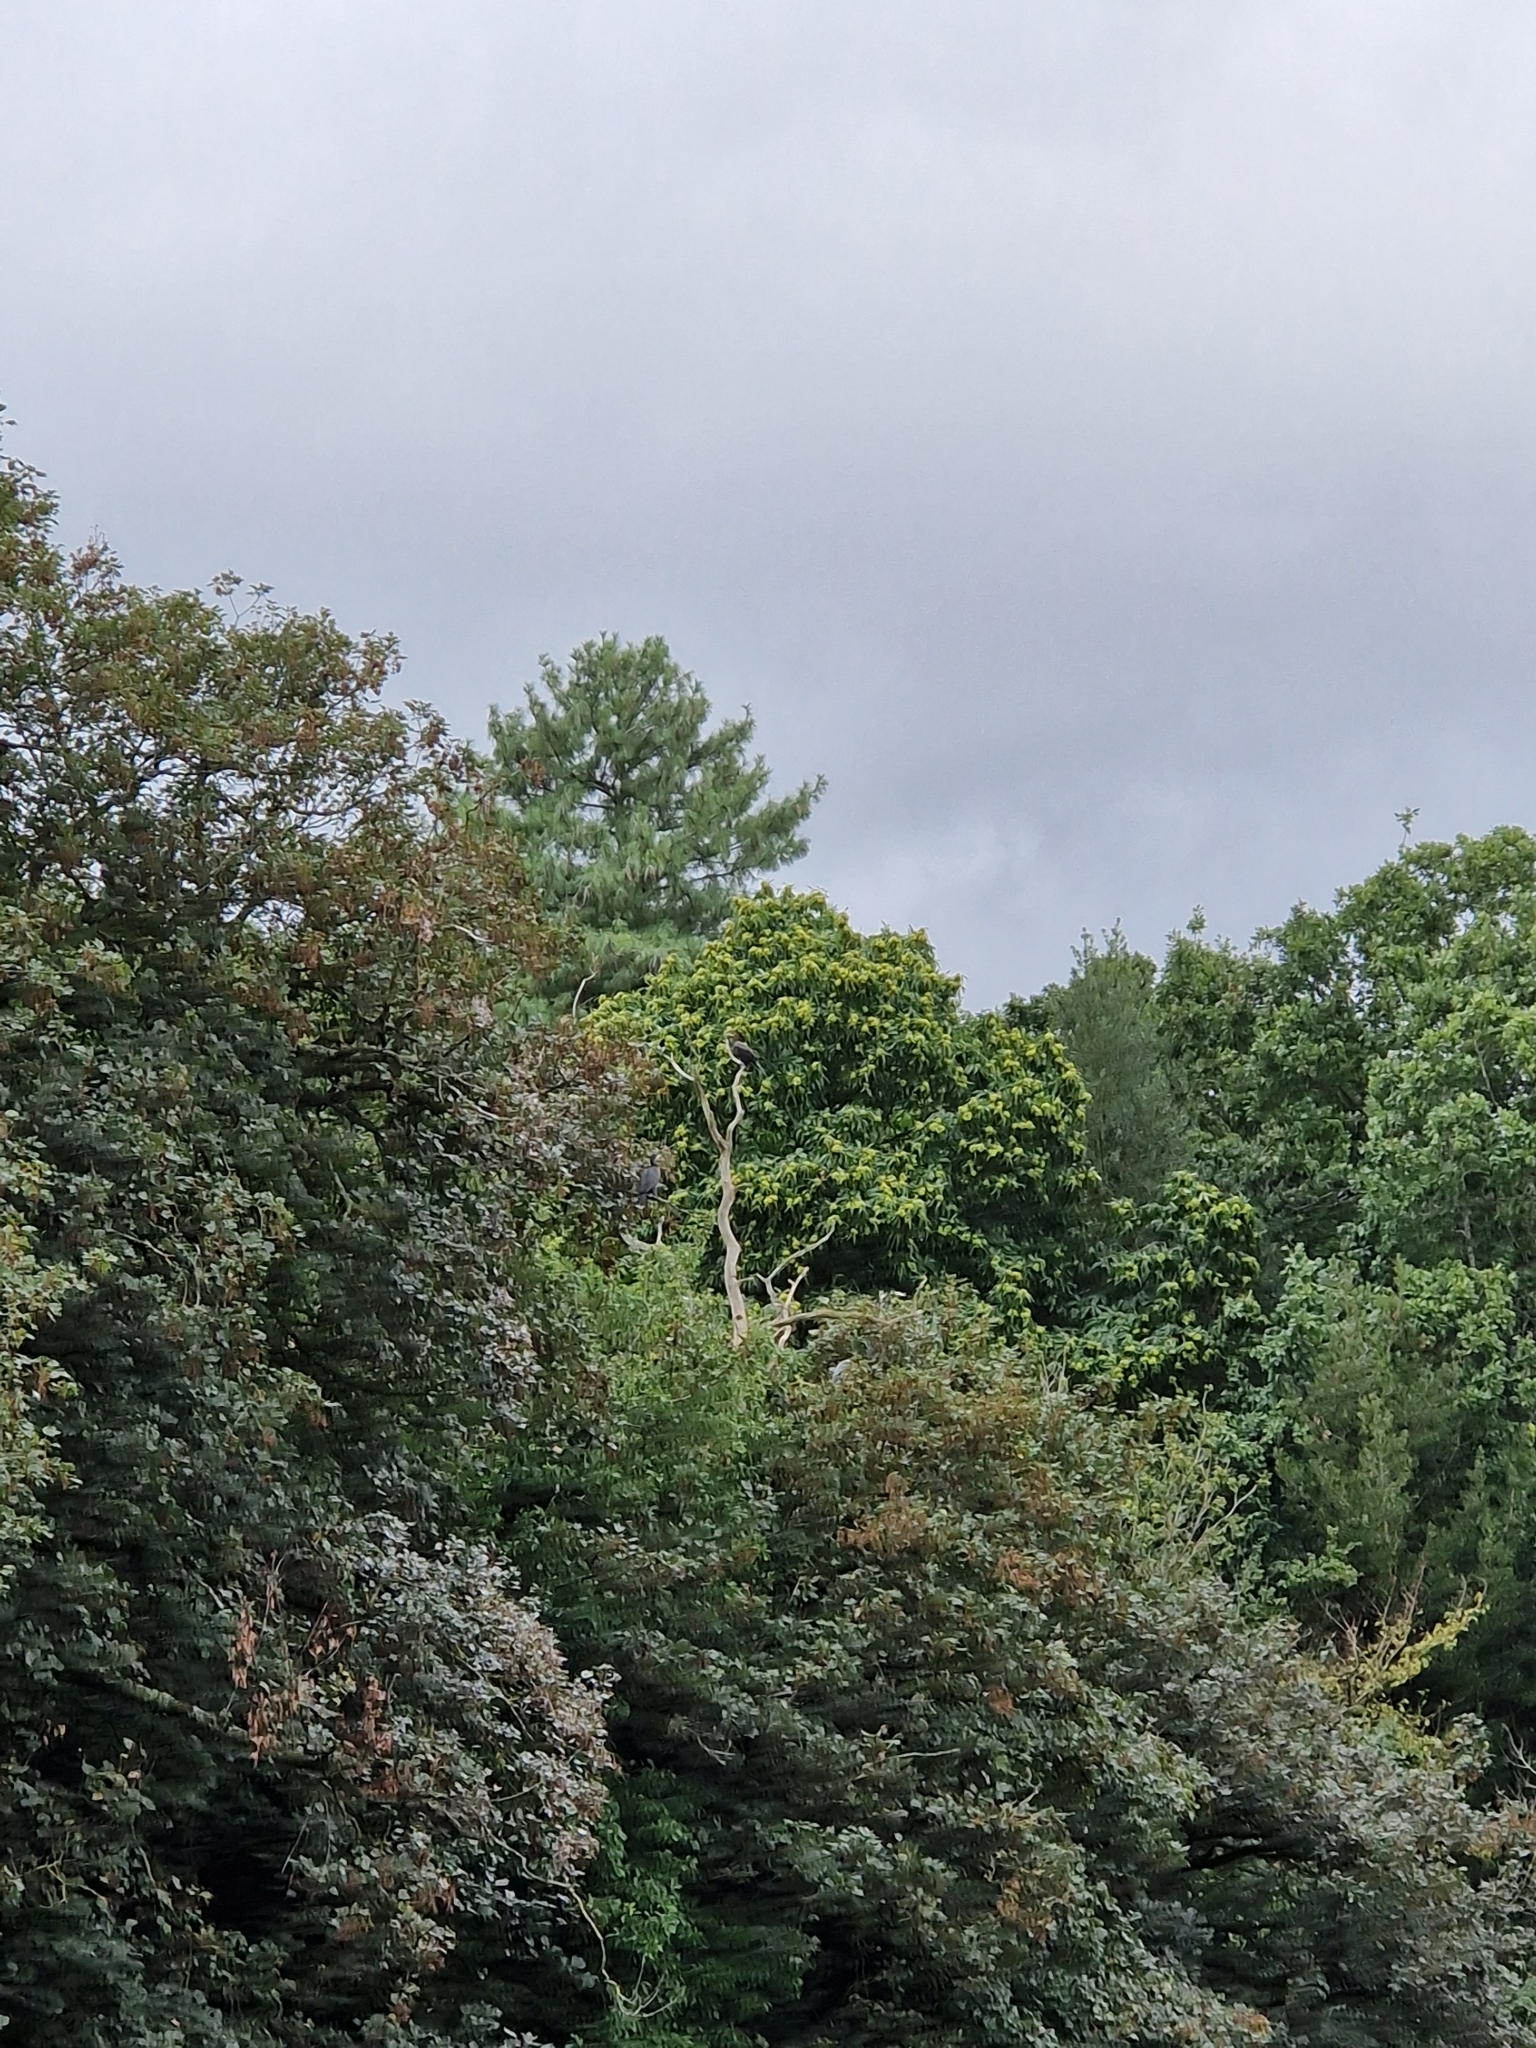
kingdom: Animalia
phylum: Chordata
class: Aves
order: Suliformes
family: Phalacrocoracidae
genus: Phalacrocorax
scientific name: Phalacrocorax carbo
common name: Great cormorant
